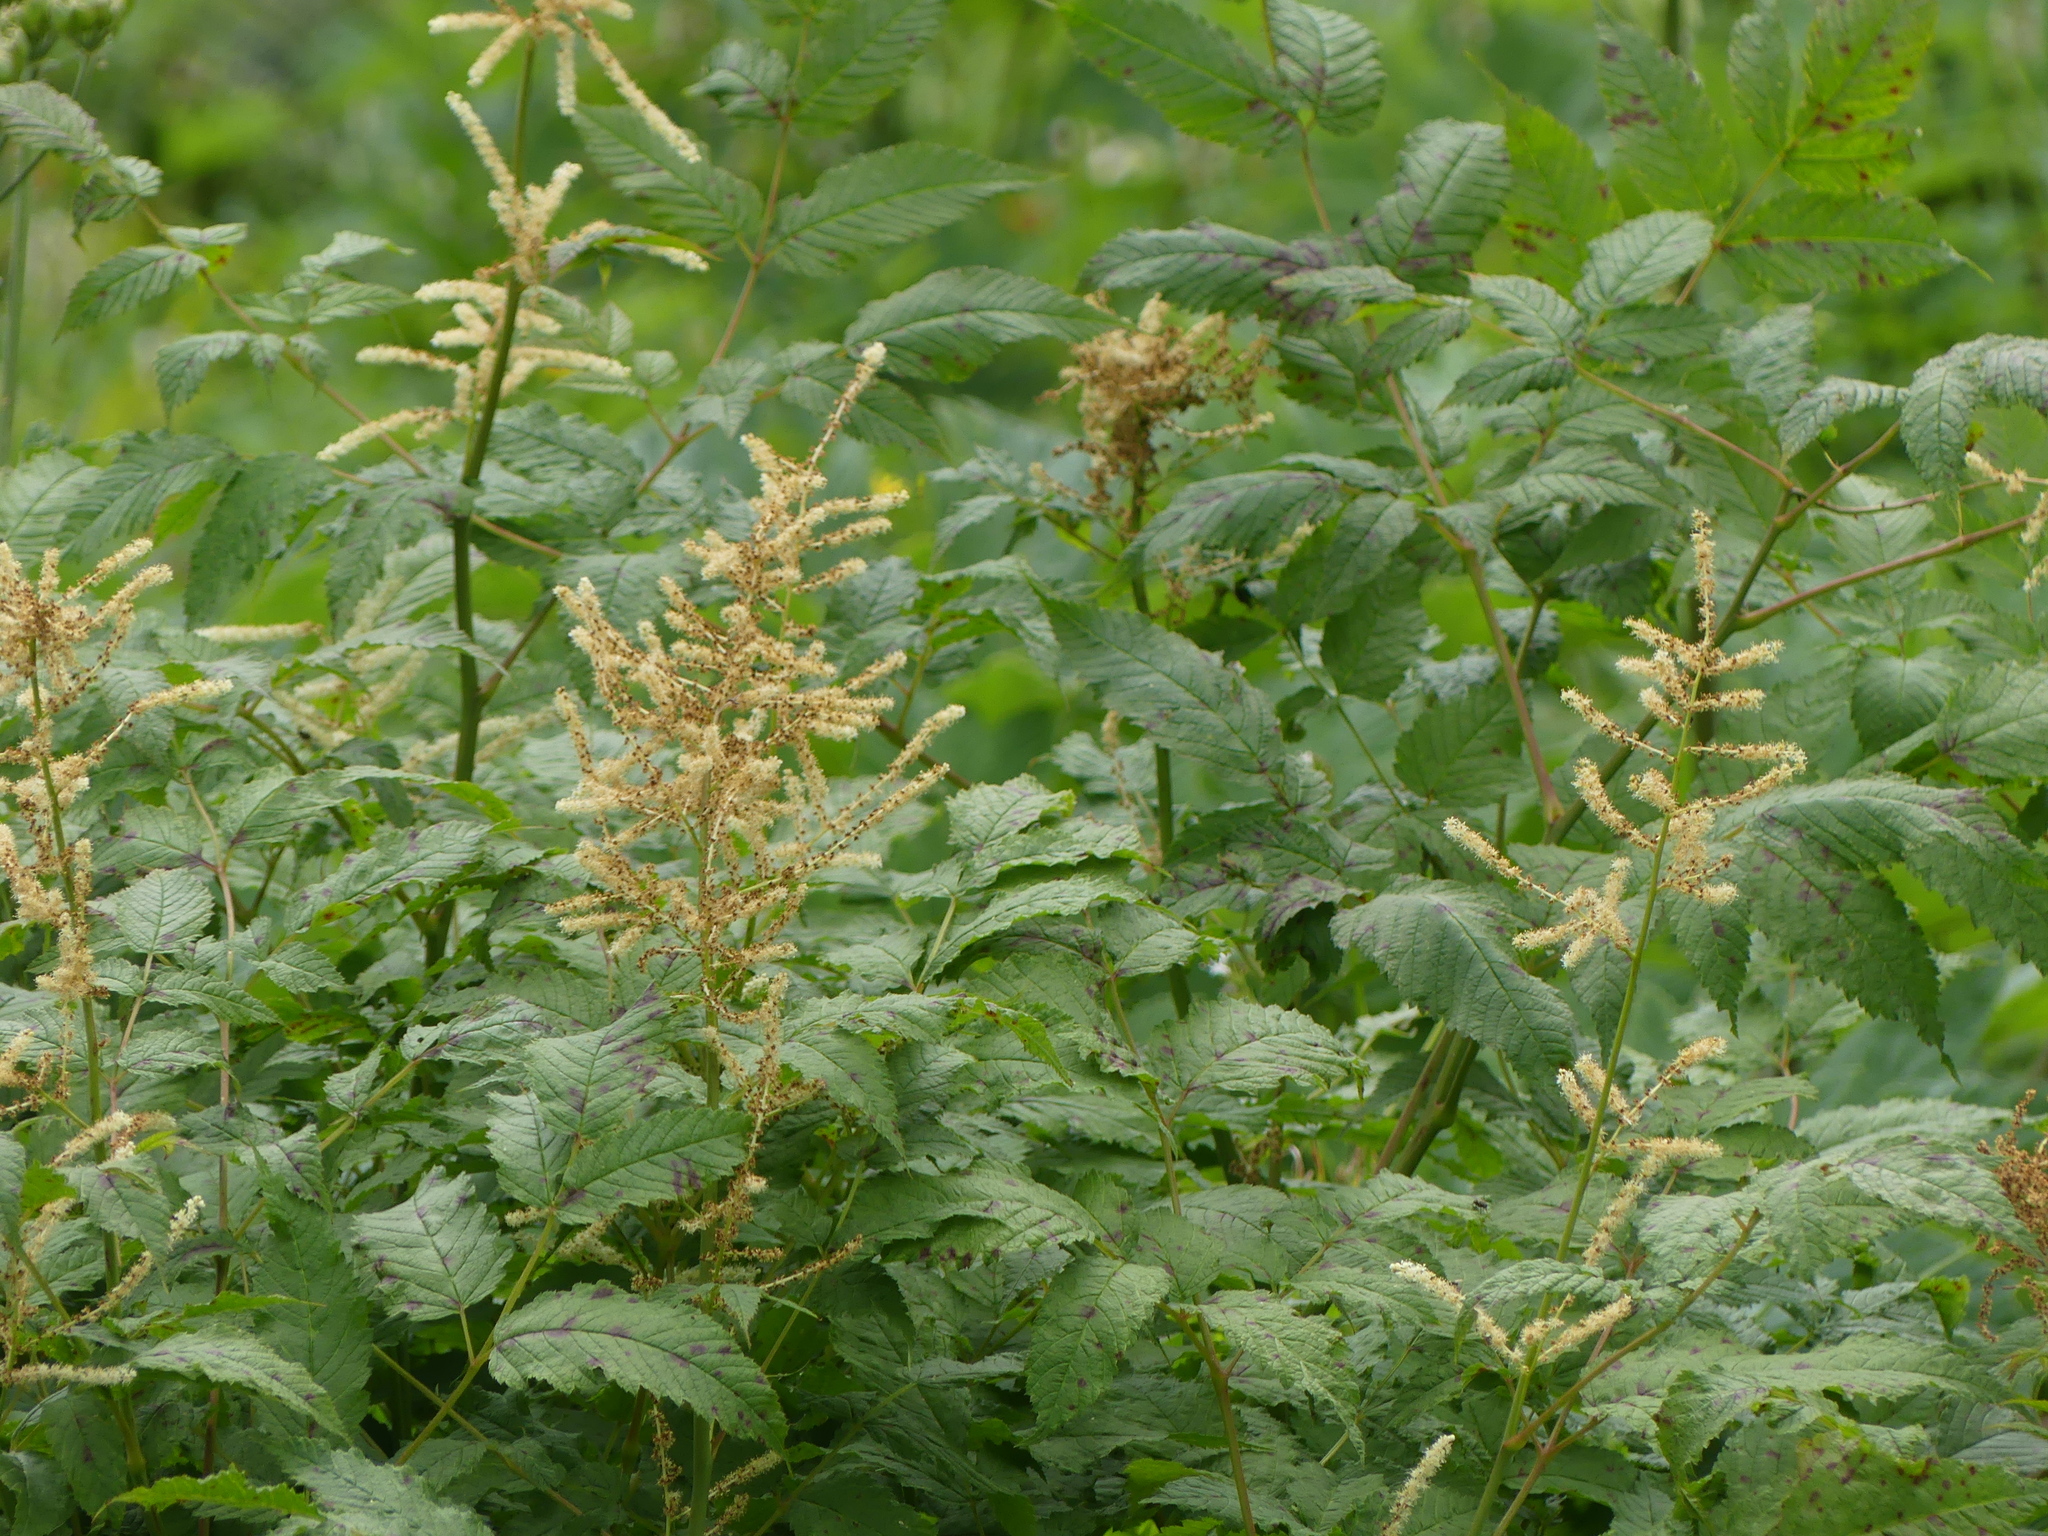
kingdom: Plantae
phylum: Tracheophyta
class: Magnoliopsida
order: Rosales
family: Rosaceae
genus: Aruncus
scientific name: Aruncus dioicus
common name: Buck's-beard
